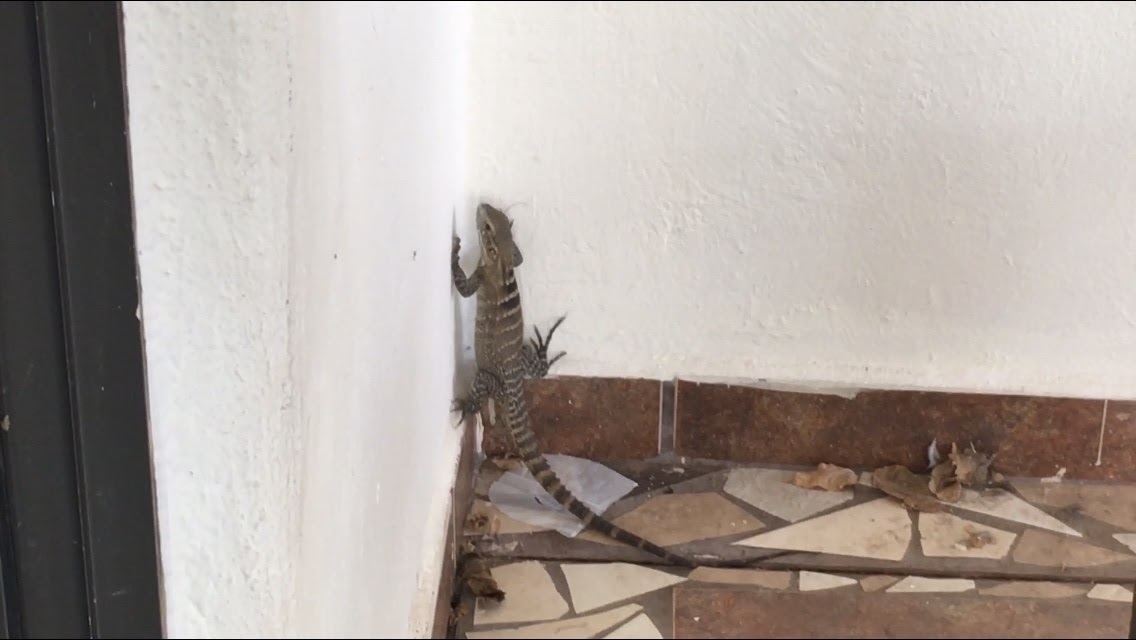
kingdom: Animalia
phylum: Chordata
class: Squamata
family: Iguanidae
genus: Ctenosaura
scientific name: Ctenosaura macrolopha
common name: Cape spinytail iguana
